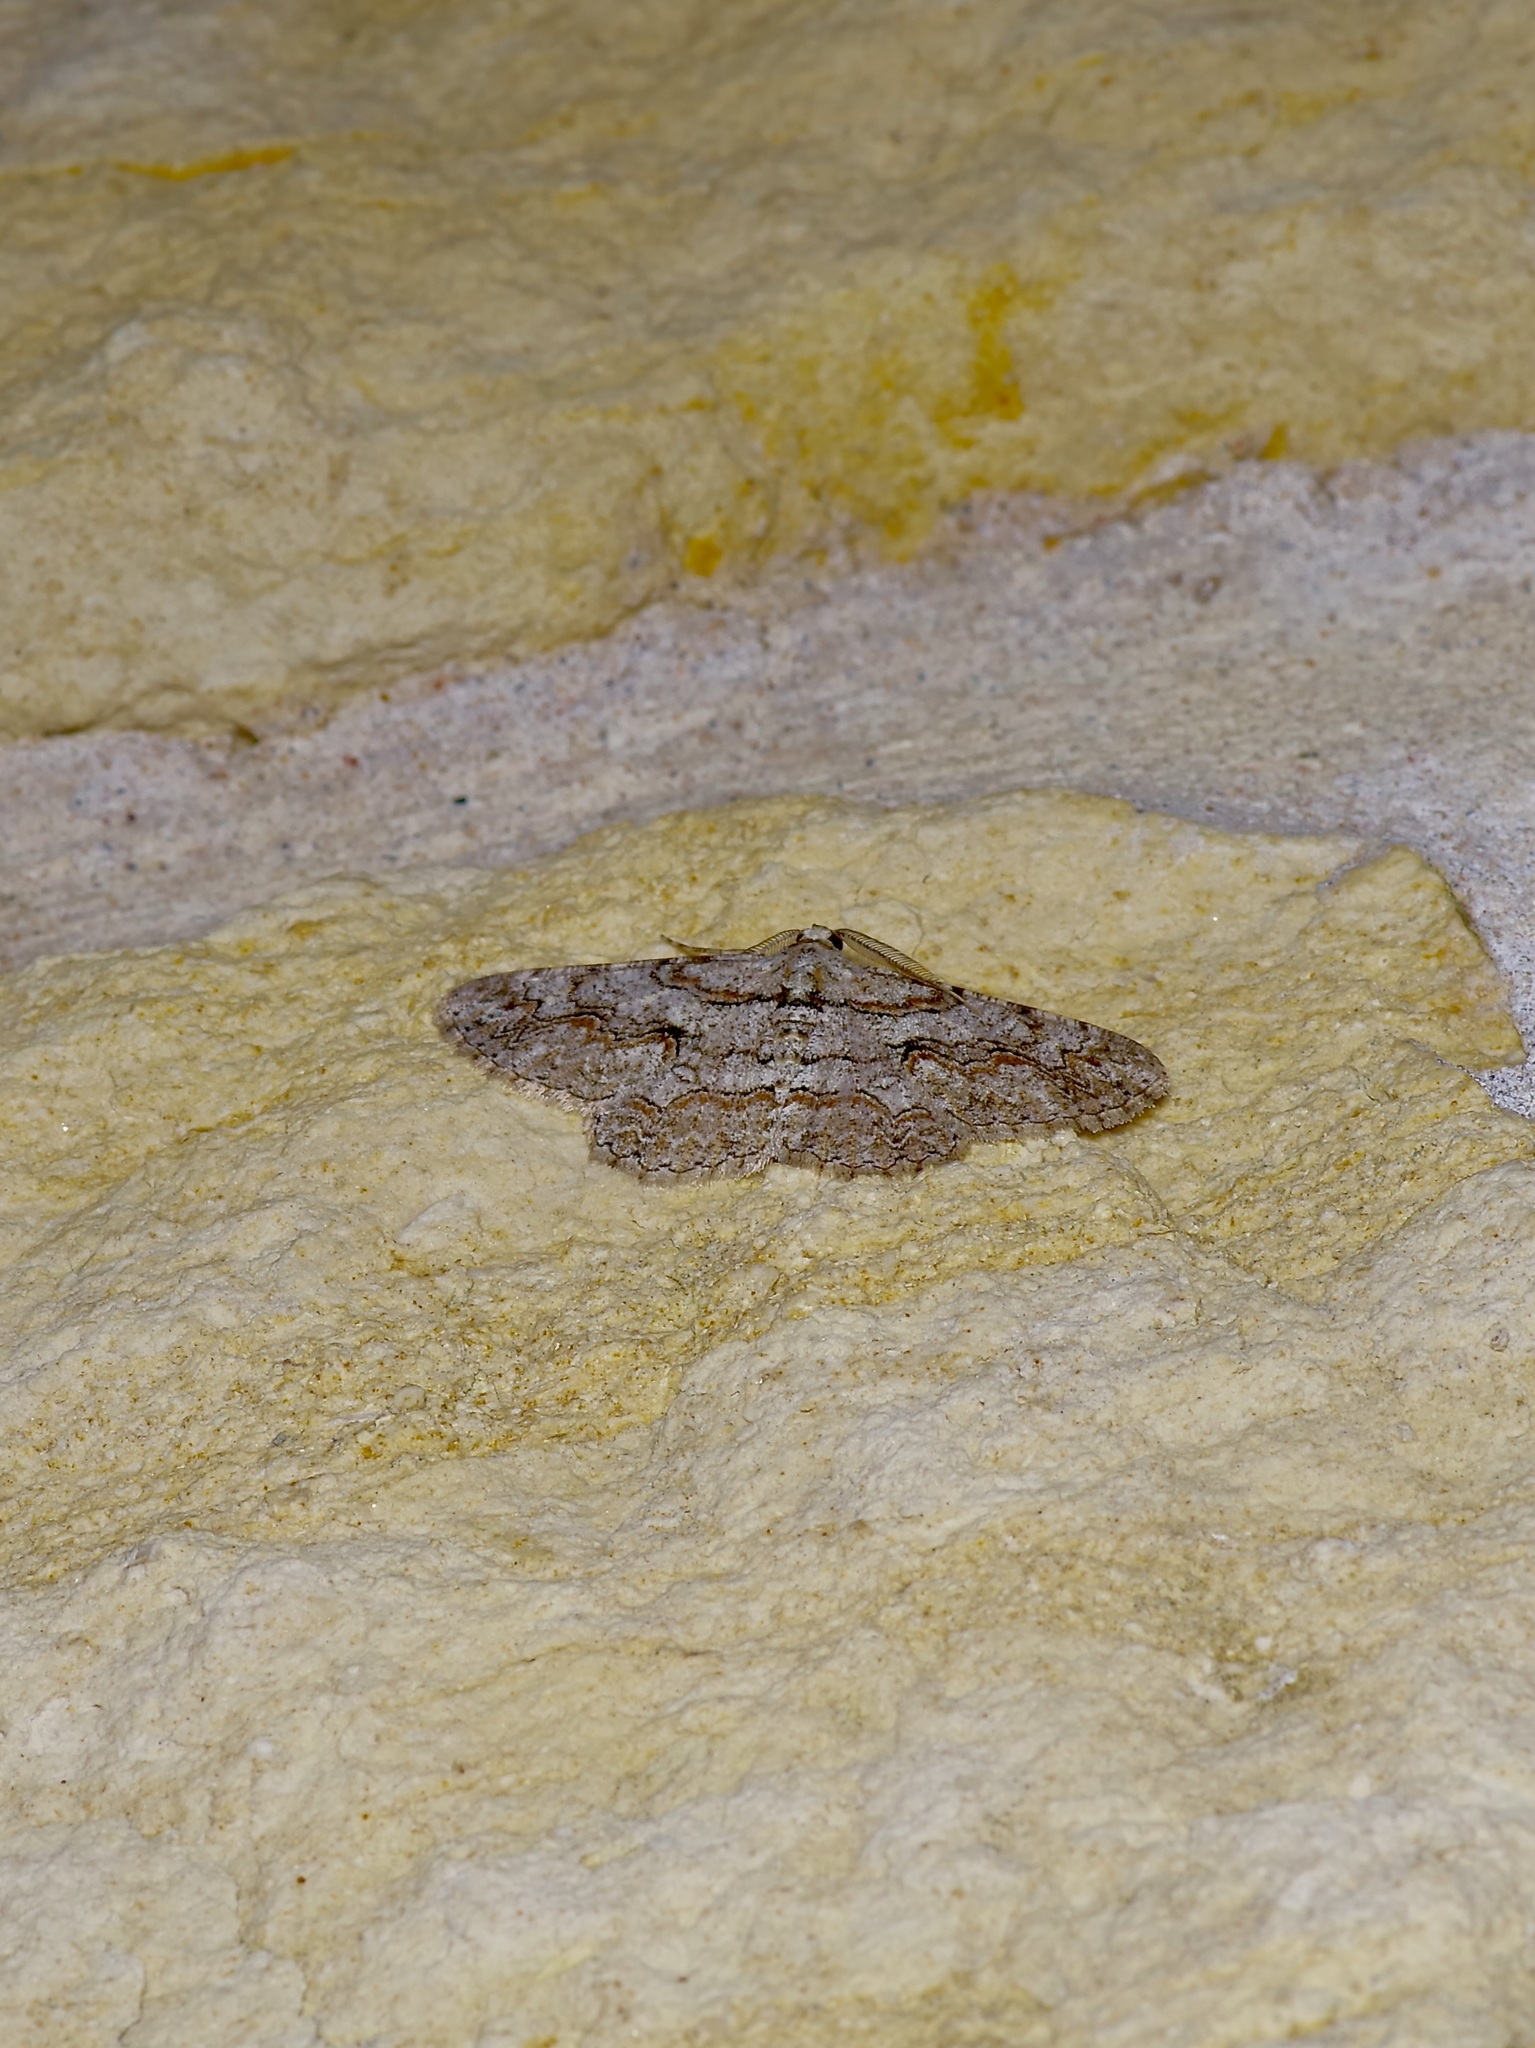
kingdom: Animalia
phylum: Arthropoda
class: Insecta
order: Lepidoptera
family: Geometridae
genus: Iridopsis
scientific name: Iridopsis defectaria
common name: Brown-shaded gray
